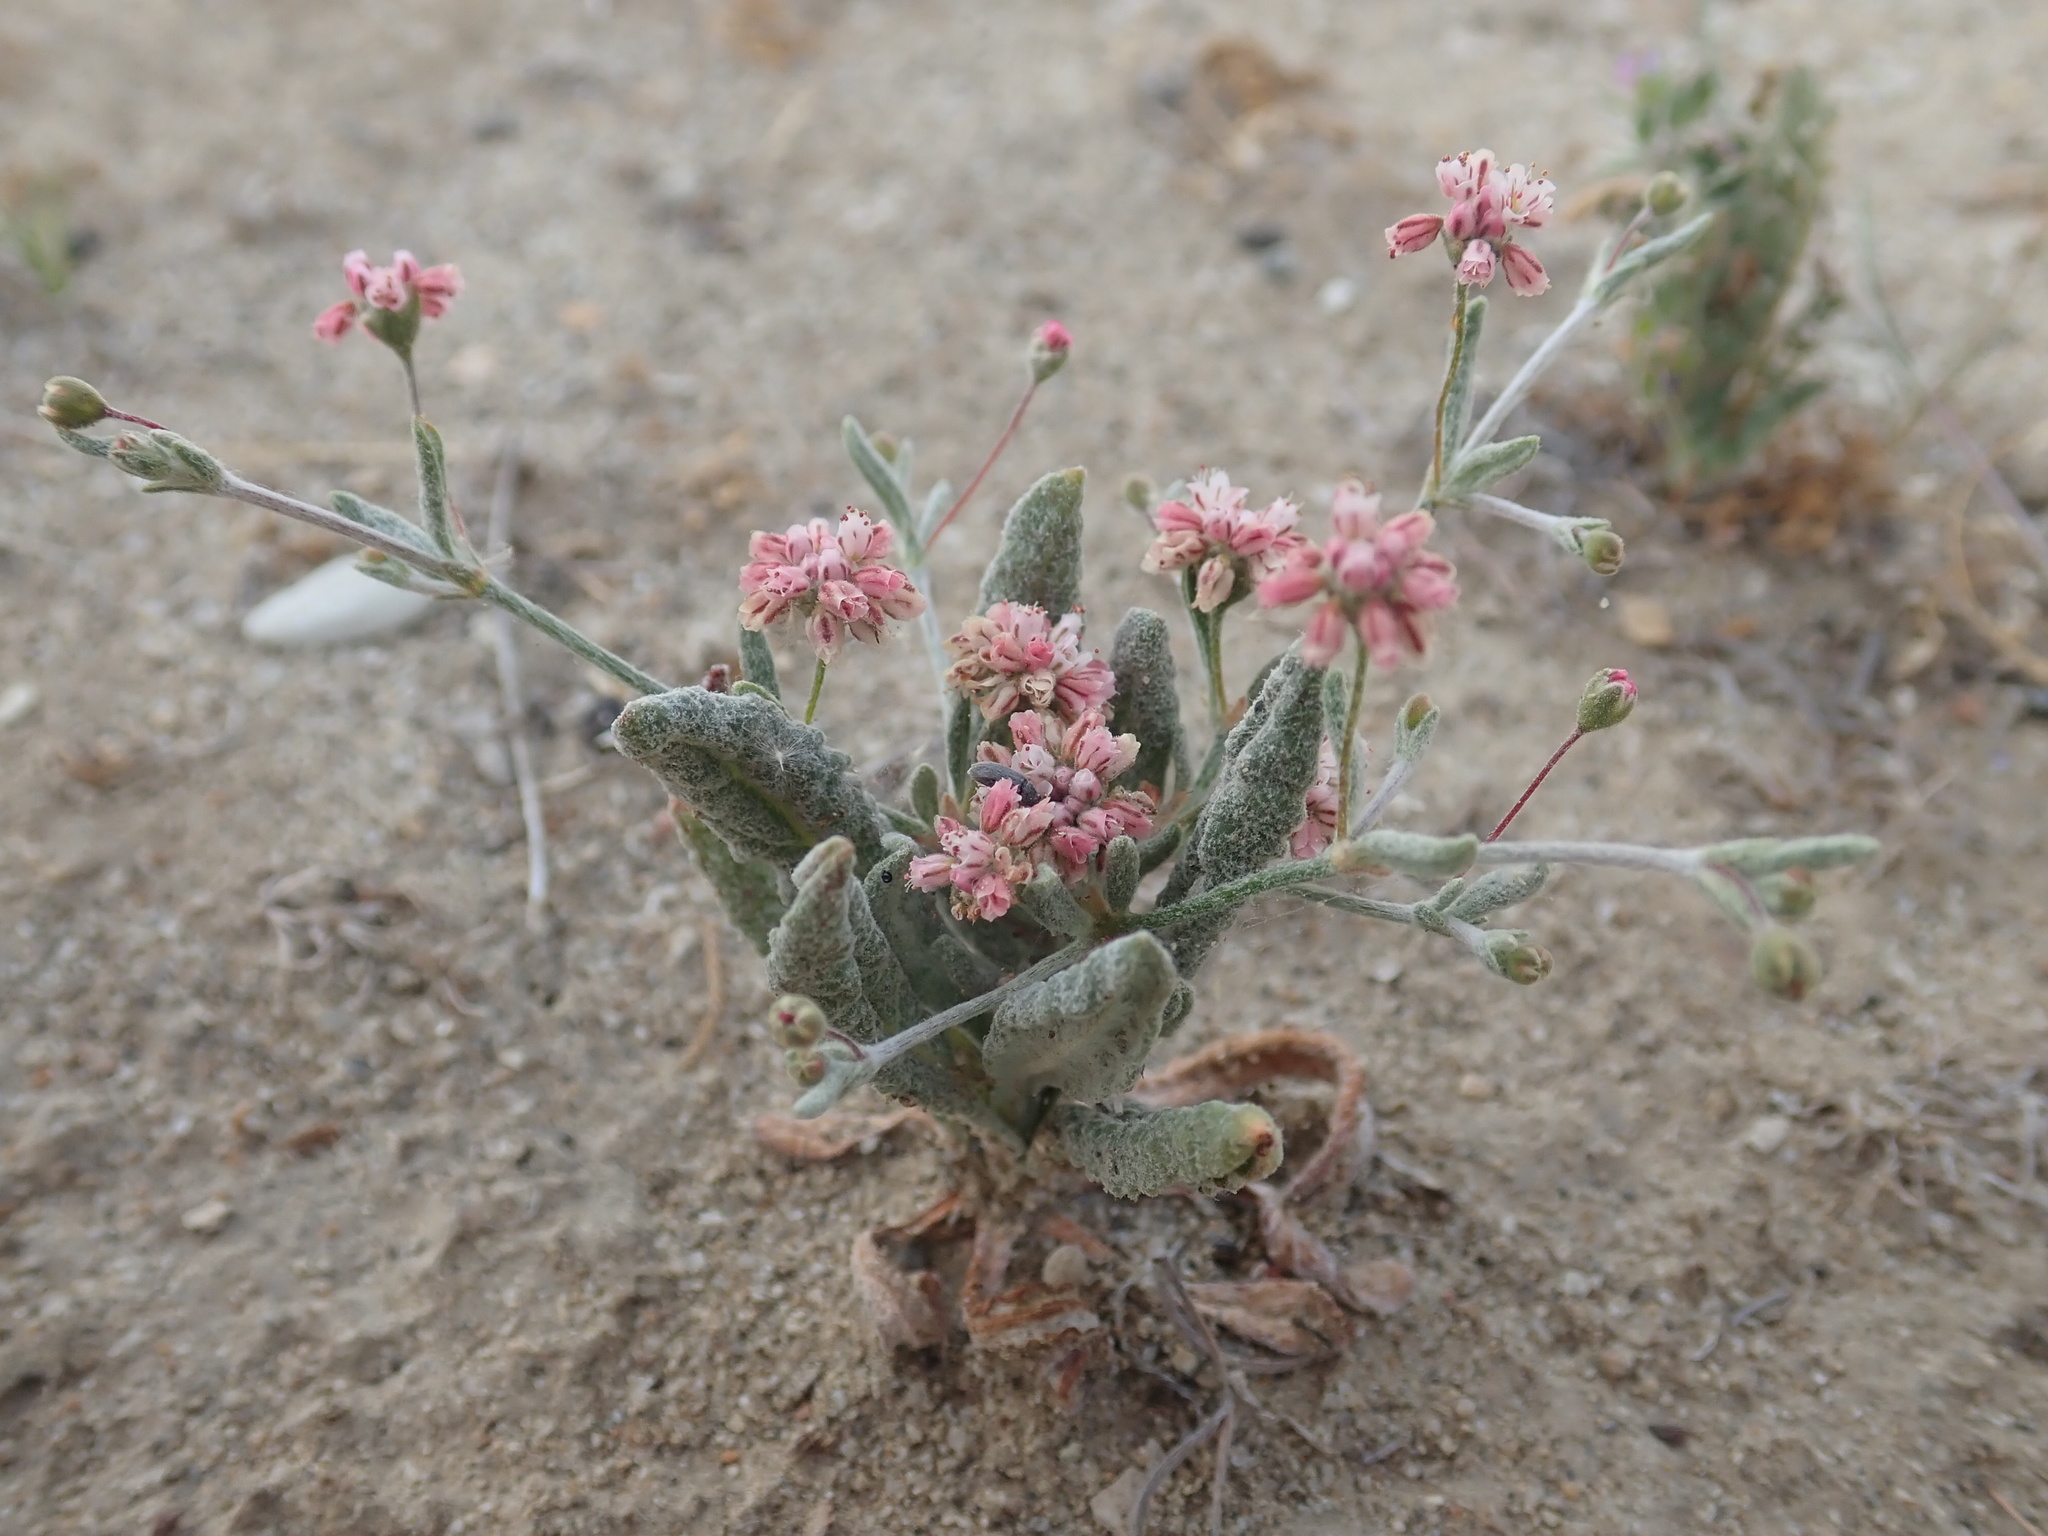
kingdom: Plantae
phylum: Tracheophyta
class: Magnoliopsida
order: Caryophyllales
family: Polygonaceae
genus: Eriogonum
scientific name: Eriogonum gracillimum
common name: Rose-and-white wild buckwheat
